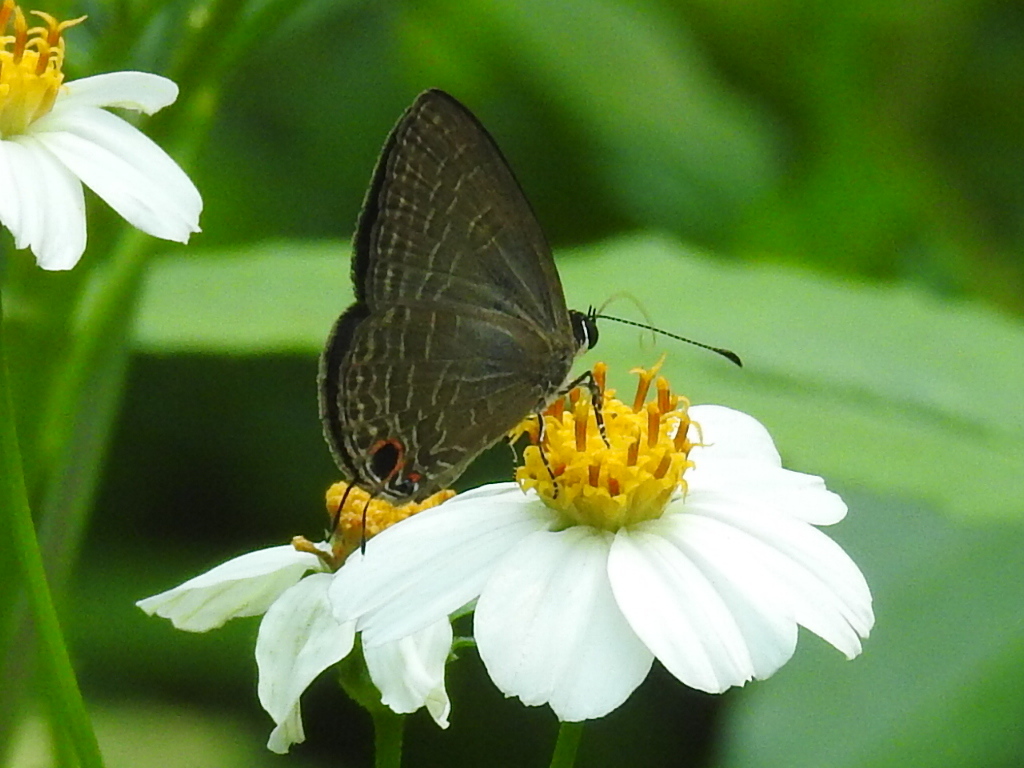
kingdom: Animalia
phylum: Arthropoda
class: Insecta
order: Lepidoptera
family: Lycaenidae
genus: Jamides
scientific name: Jamides bochus
